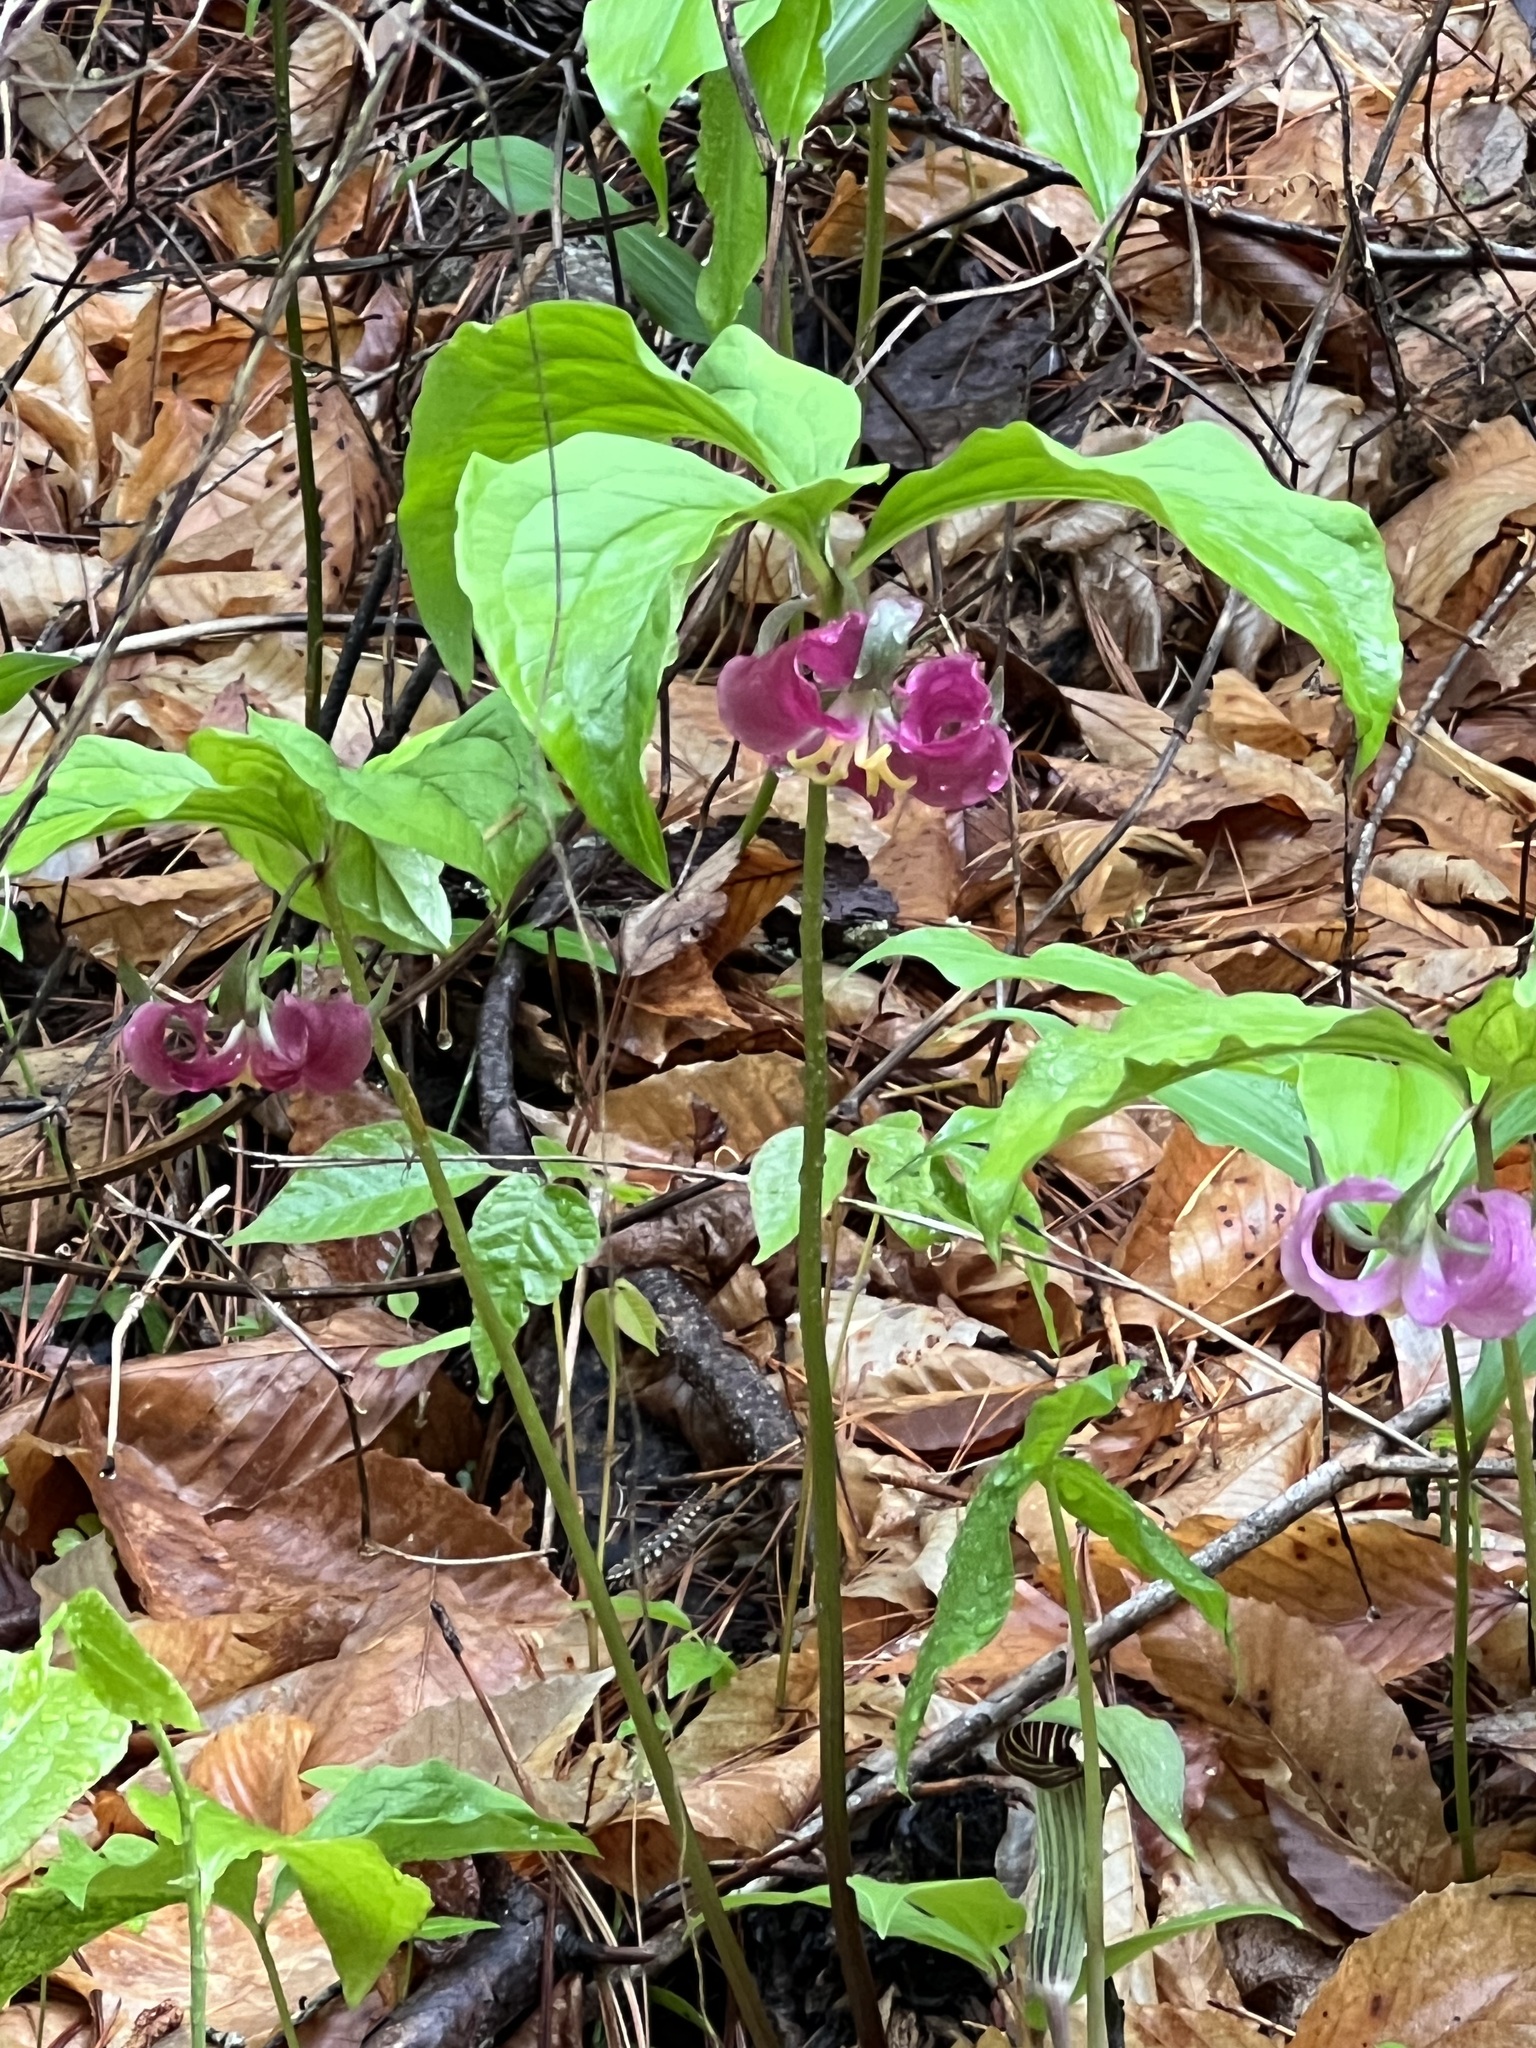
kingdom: Plantae
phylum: Tracheophyta
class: Liliopsida
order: Liliales
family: Melanthiaceae
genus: Trillium
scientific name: Trillium catesbaei
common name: Bashful trillium
